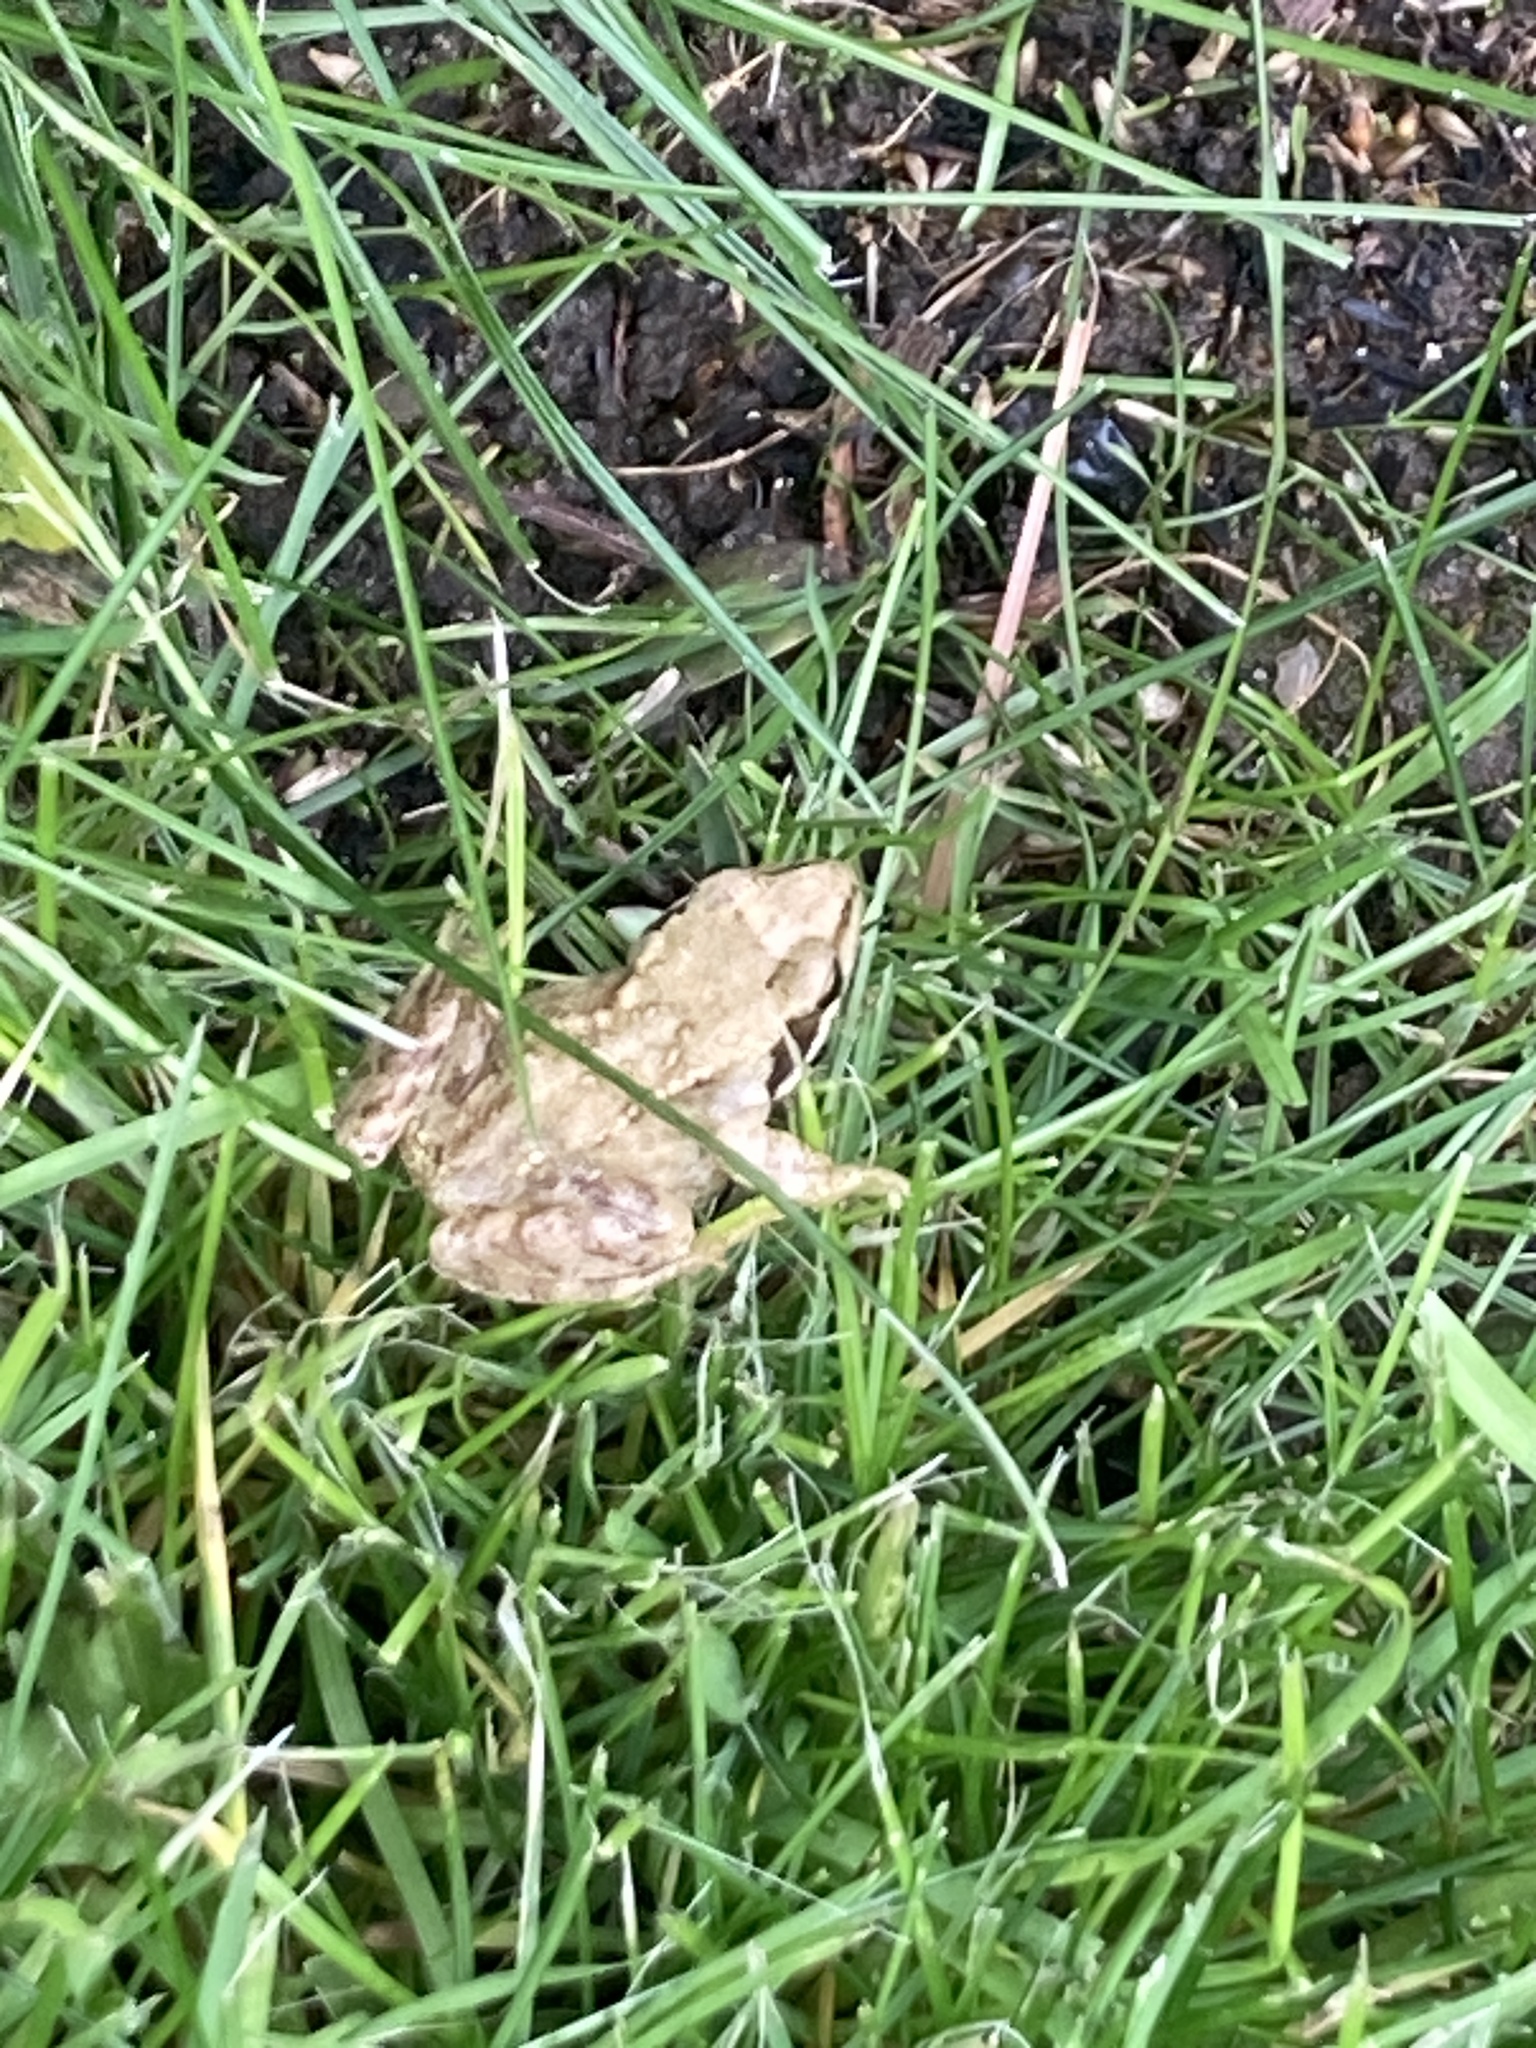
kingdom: Animalia
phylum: Chordata
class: Amphibia
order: Anura
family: Ranidae
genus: Rana
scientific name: Rana temporaria
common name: Common frog
